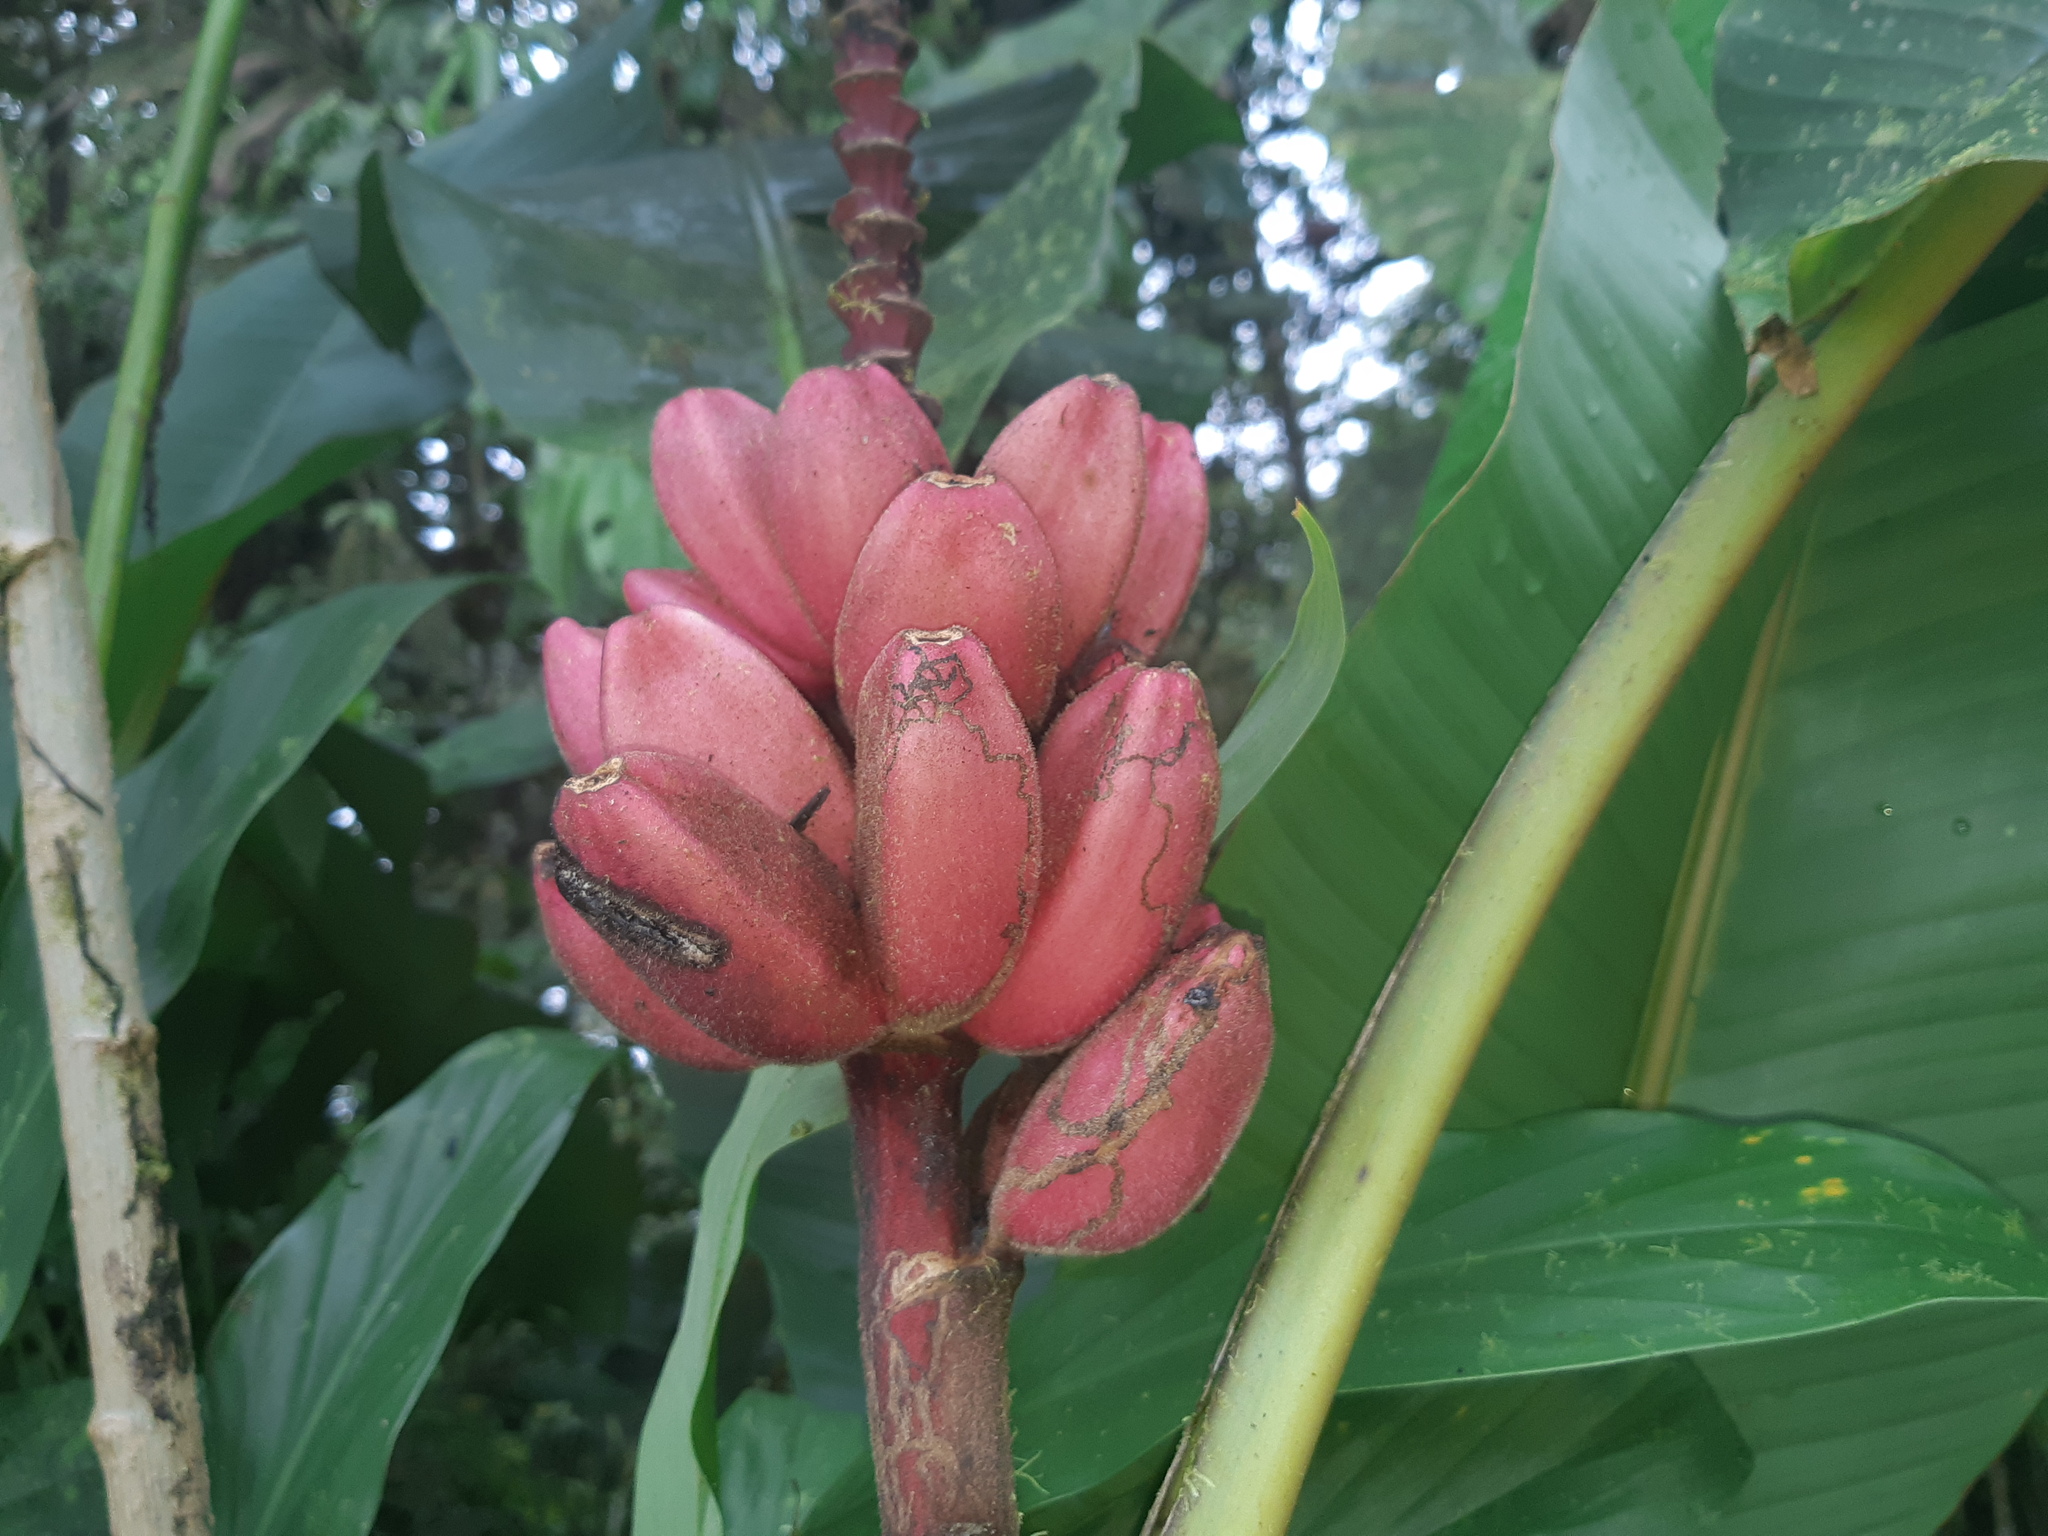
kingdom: Plantae
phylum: Tracheophyta
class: Liliopsida
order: Zingiberales
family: Musaceae
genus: Musa
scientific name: Musa velutina
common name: Pink velvet banana
